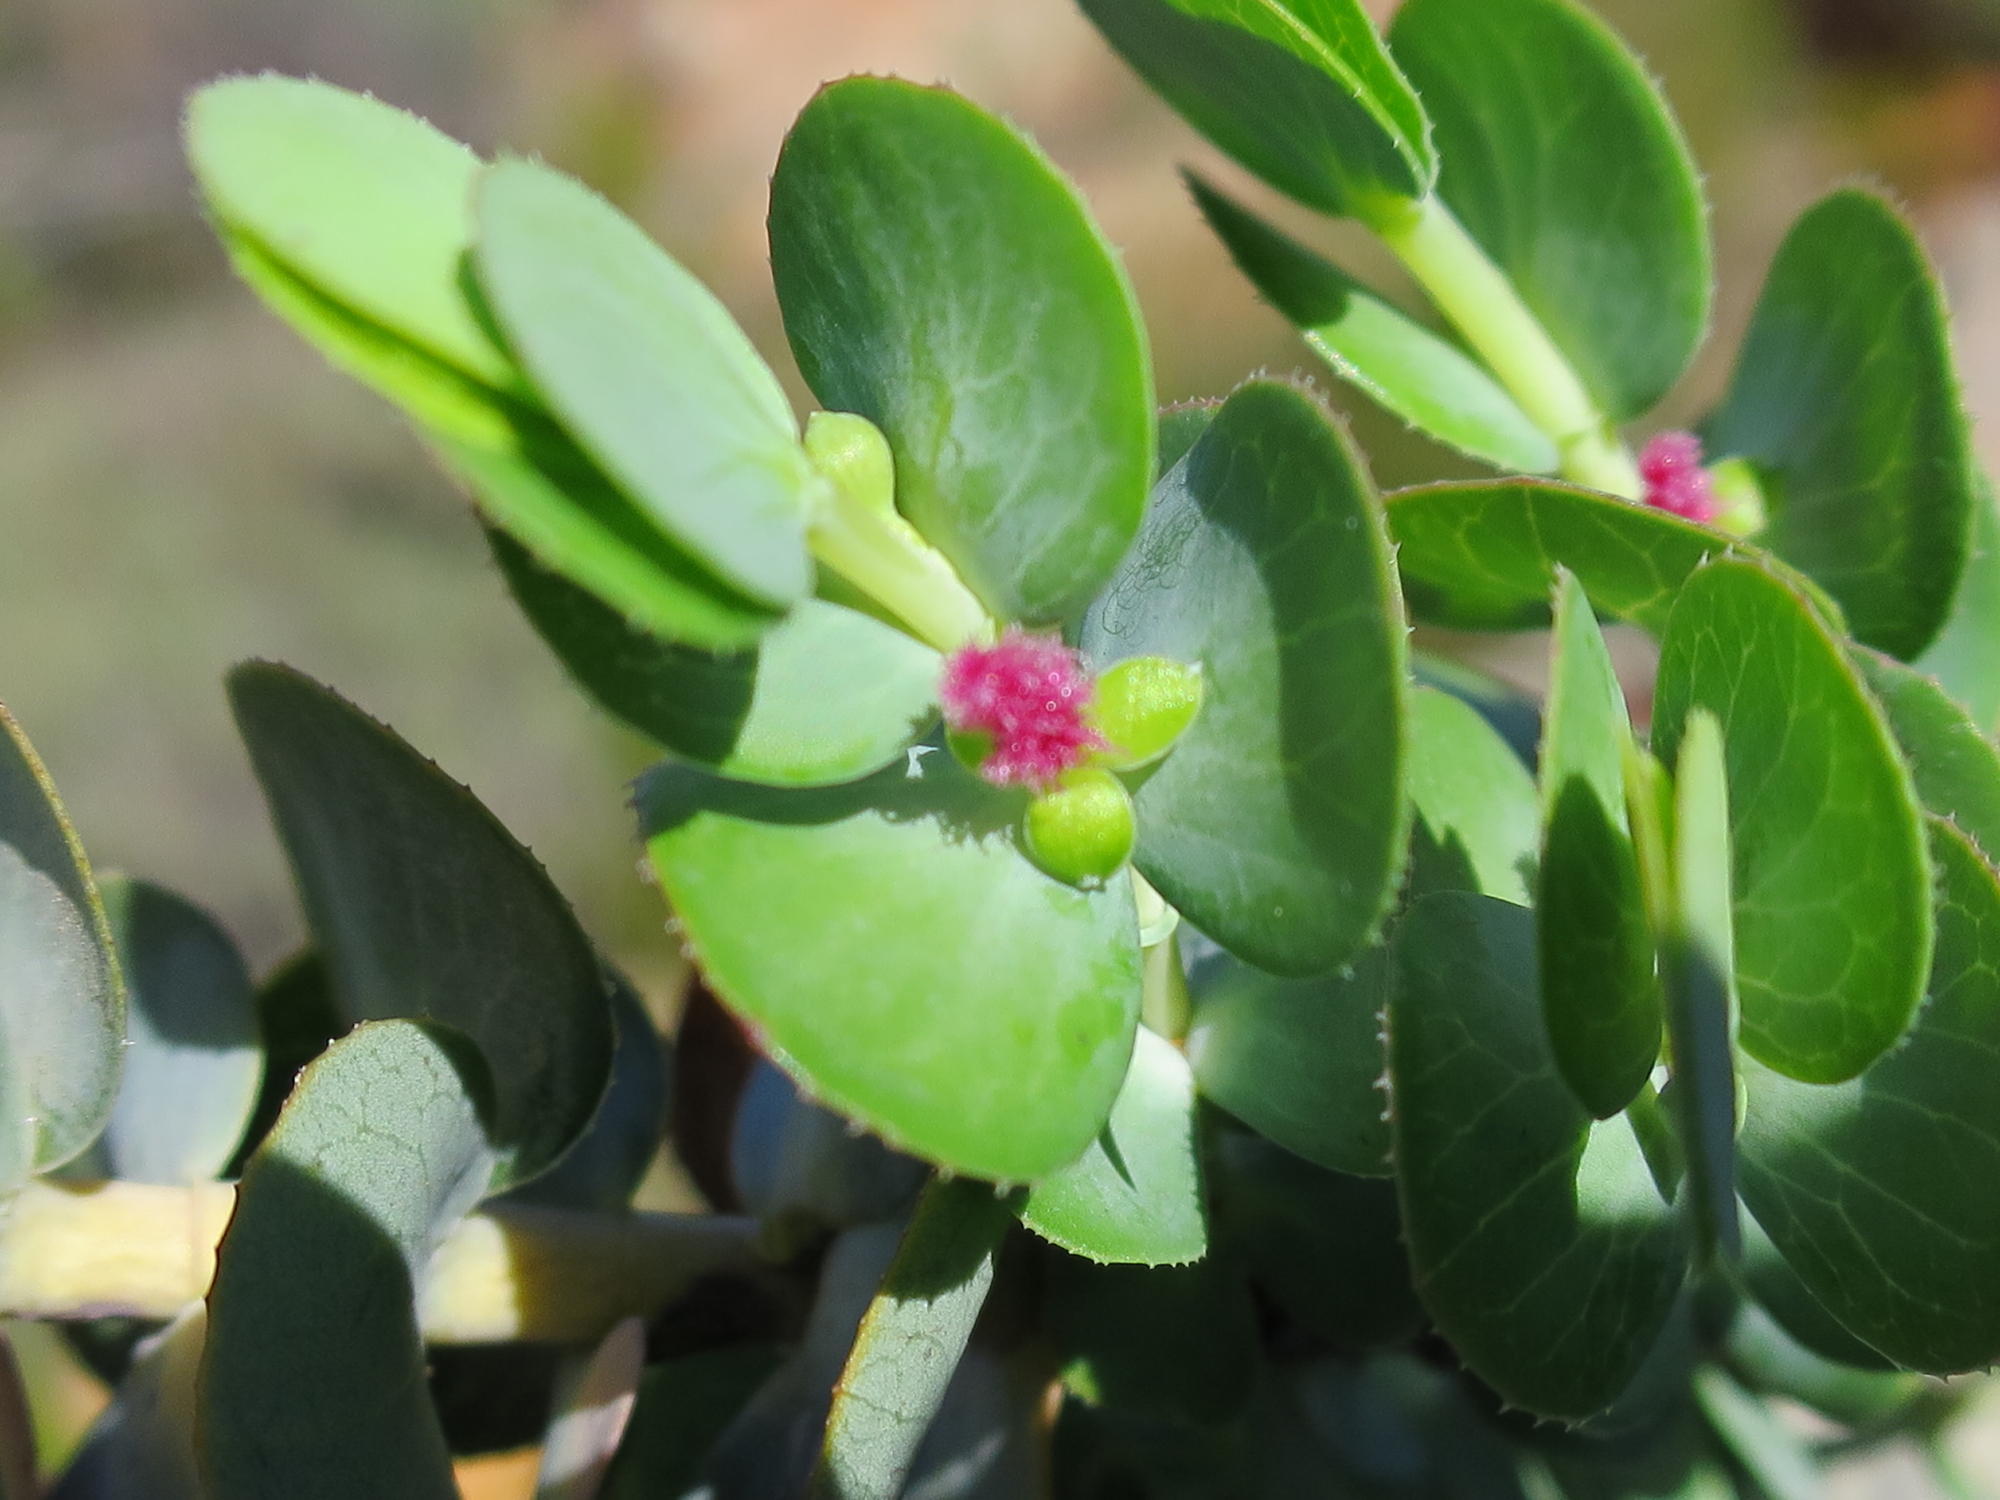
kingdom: Plantae
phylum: Tracheophyta
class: Magnoliopsida
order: Rosales
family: Rosaceae
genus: Cliffortia
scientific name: Cliffortia crenata
